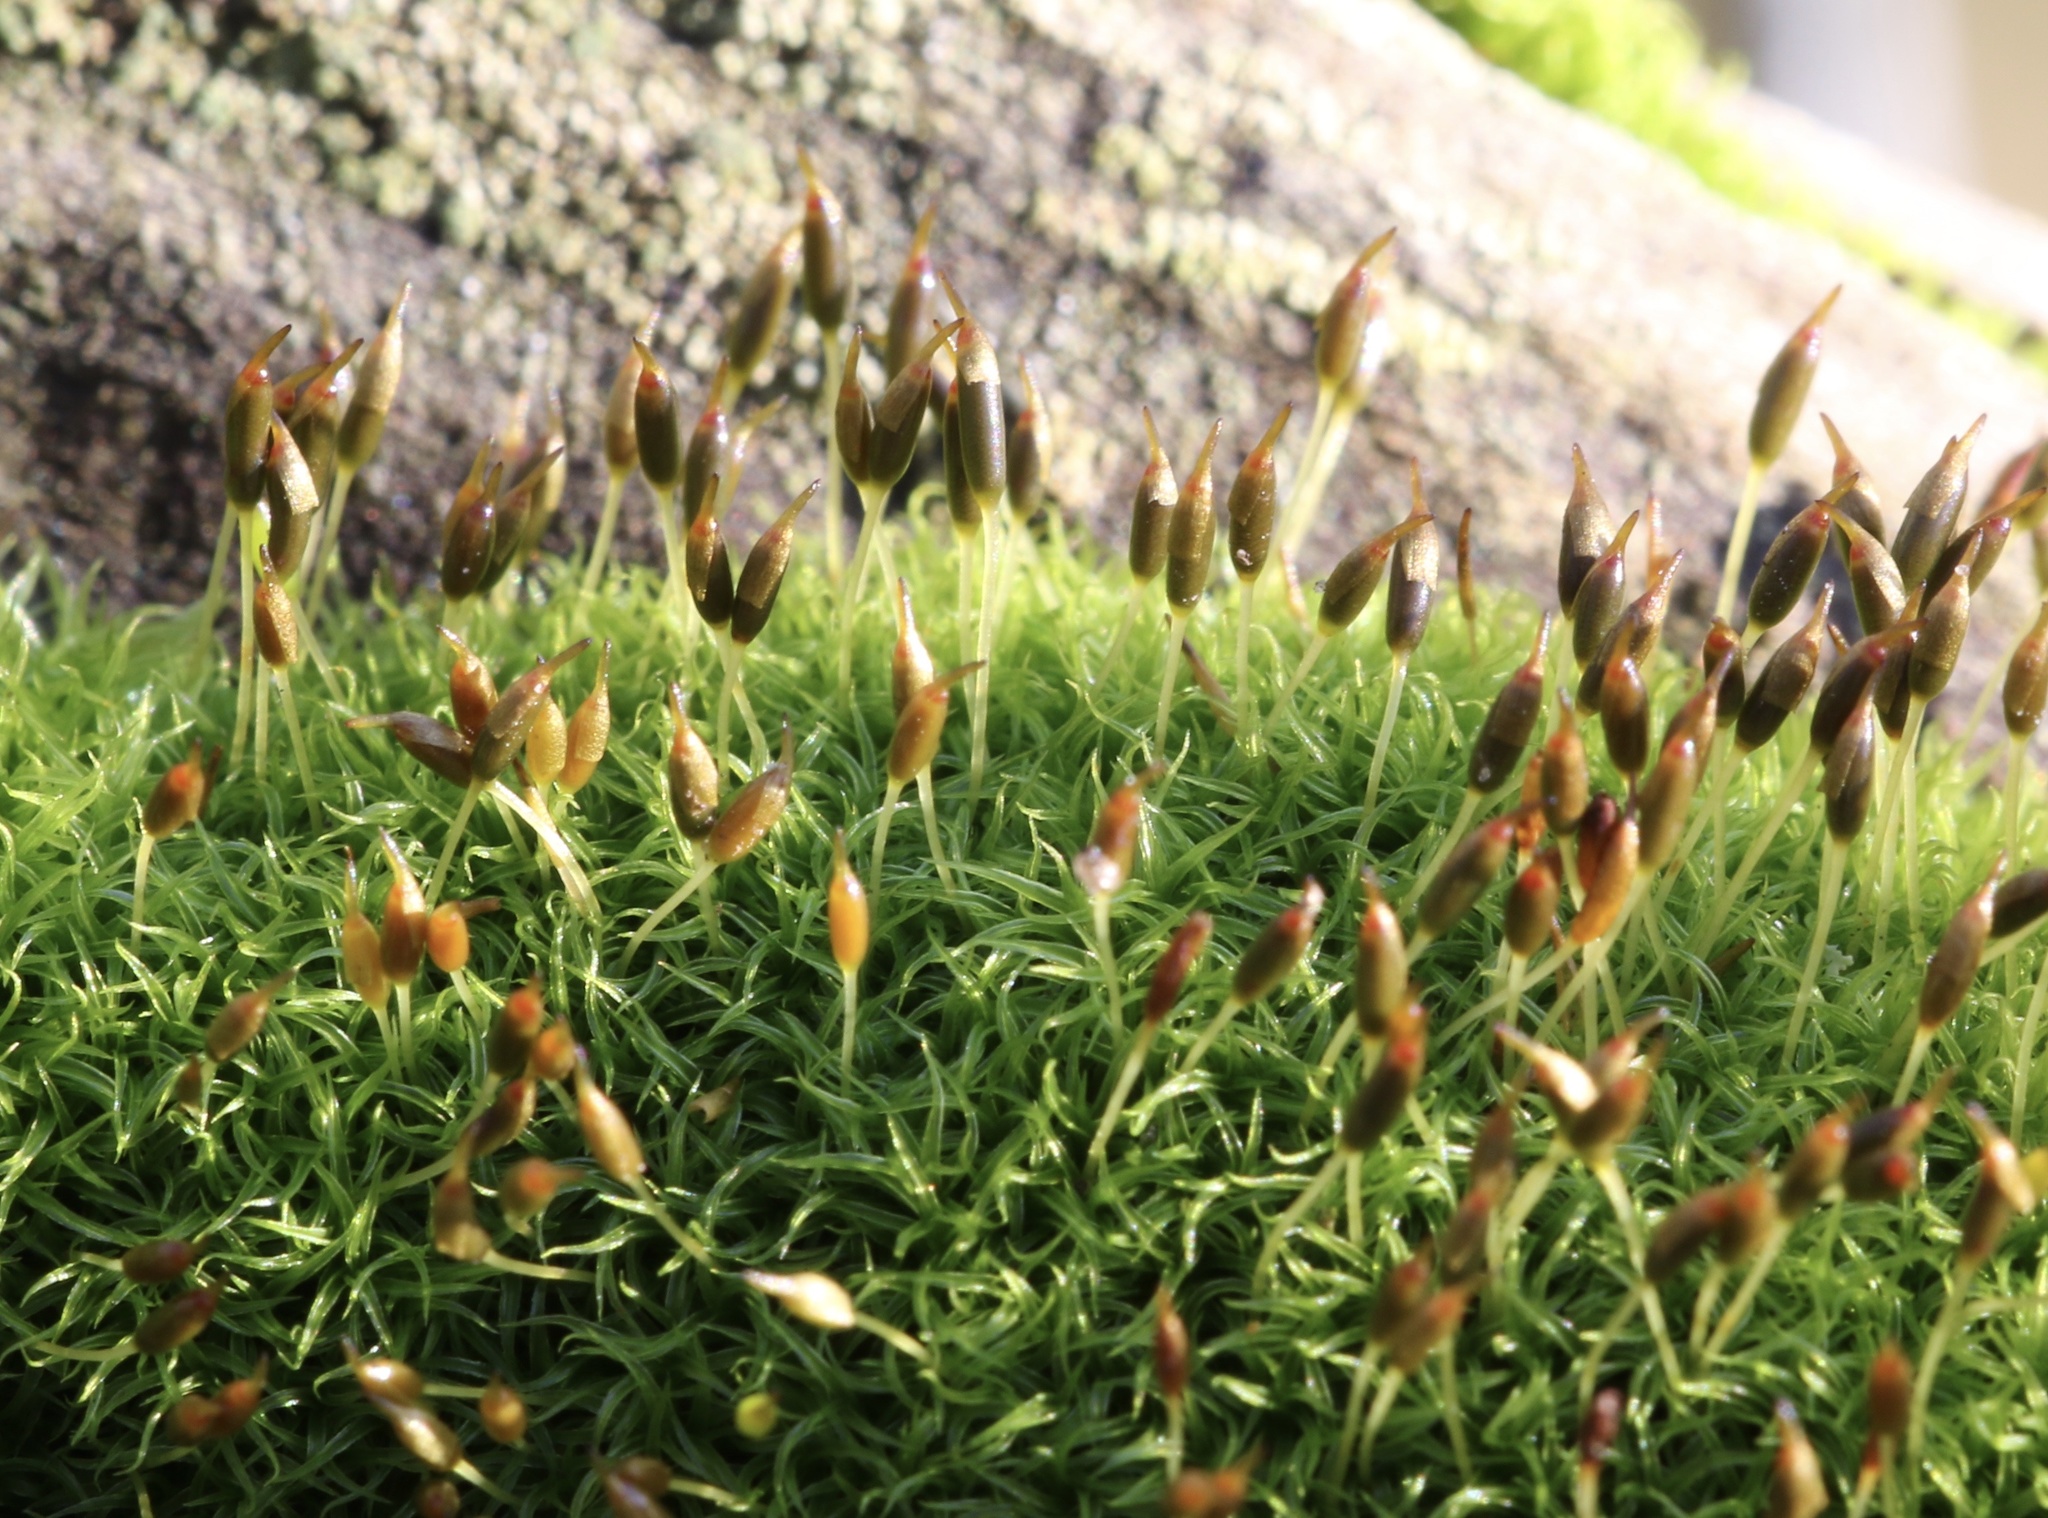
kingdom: Plantae
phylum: Bryophyta
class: Bryopsida
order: Dicranales
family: Rhabdoweisiaceae
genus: Dicranoweisia
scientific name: Dicranoweisia cirrata
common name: Common pincushion
